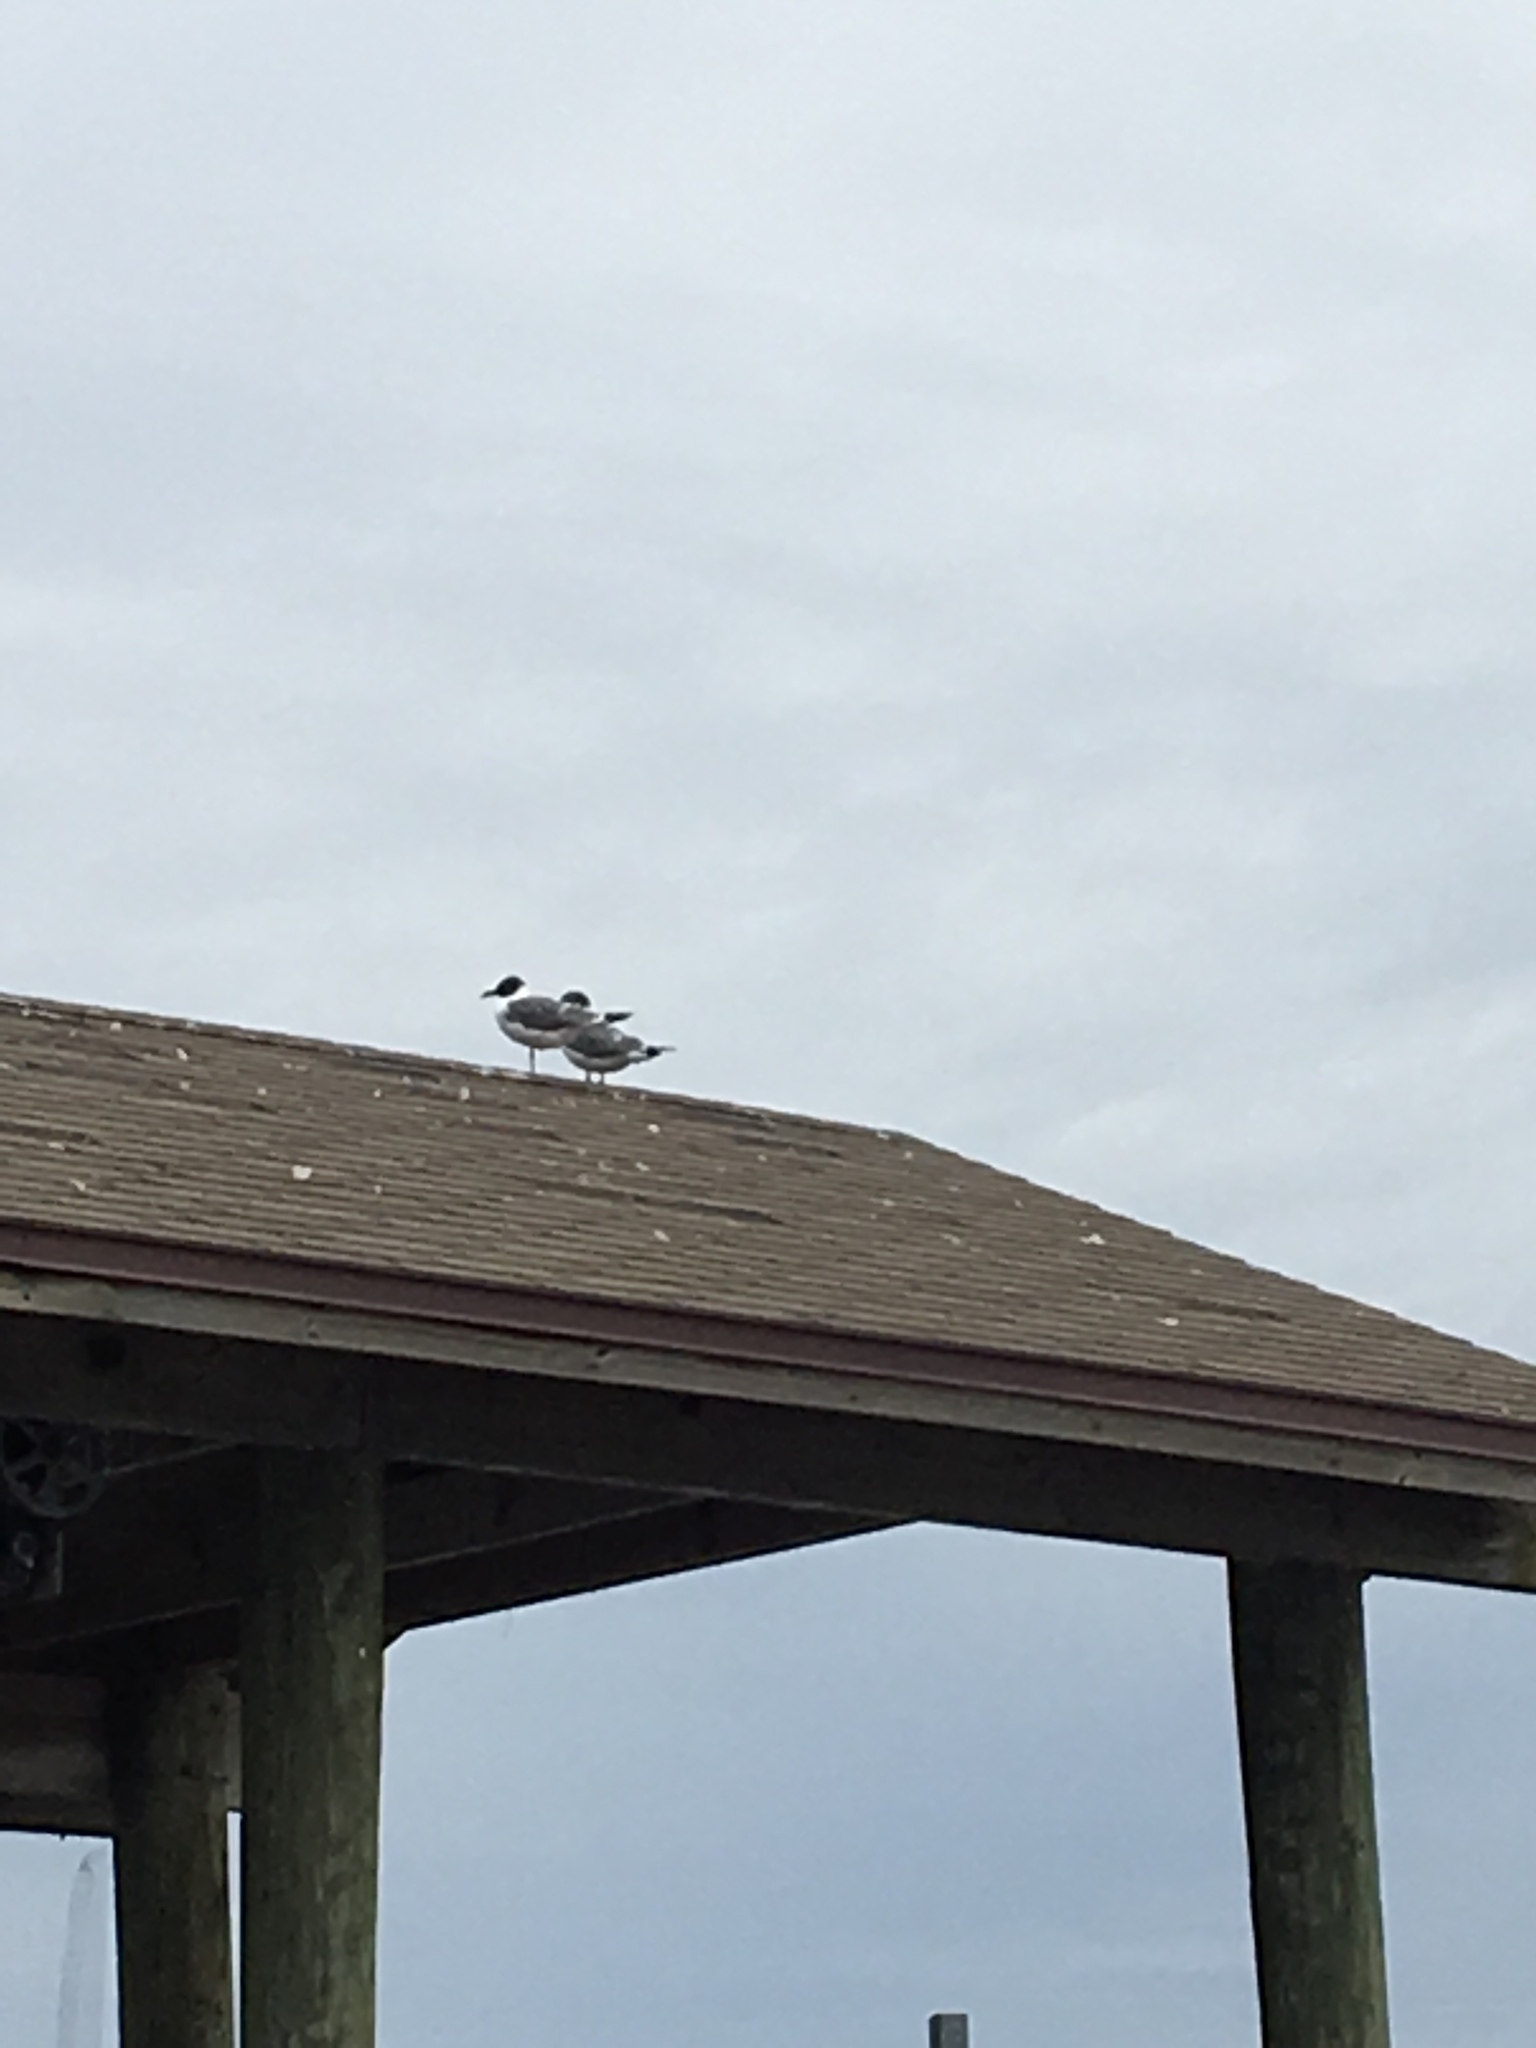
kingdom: Animalia
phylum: Chordata
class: Aves
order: Charadriiformes
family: Laridae
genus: Leucophaeus
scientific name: Leucophaeus atricilla
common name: Laughing gull
